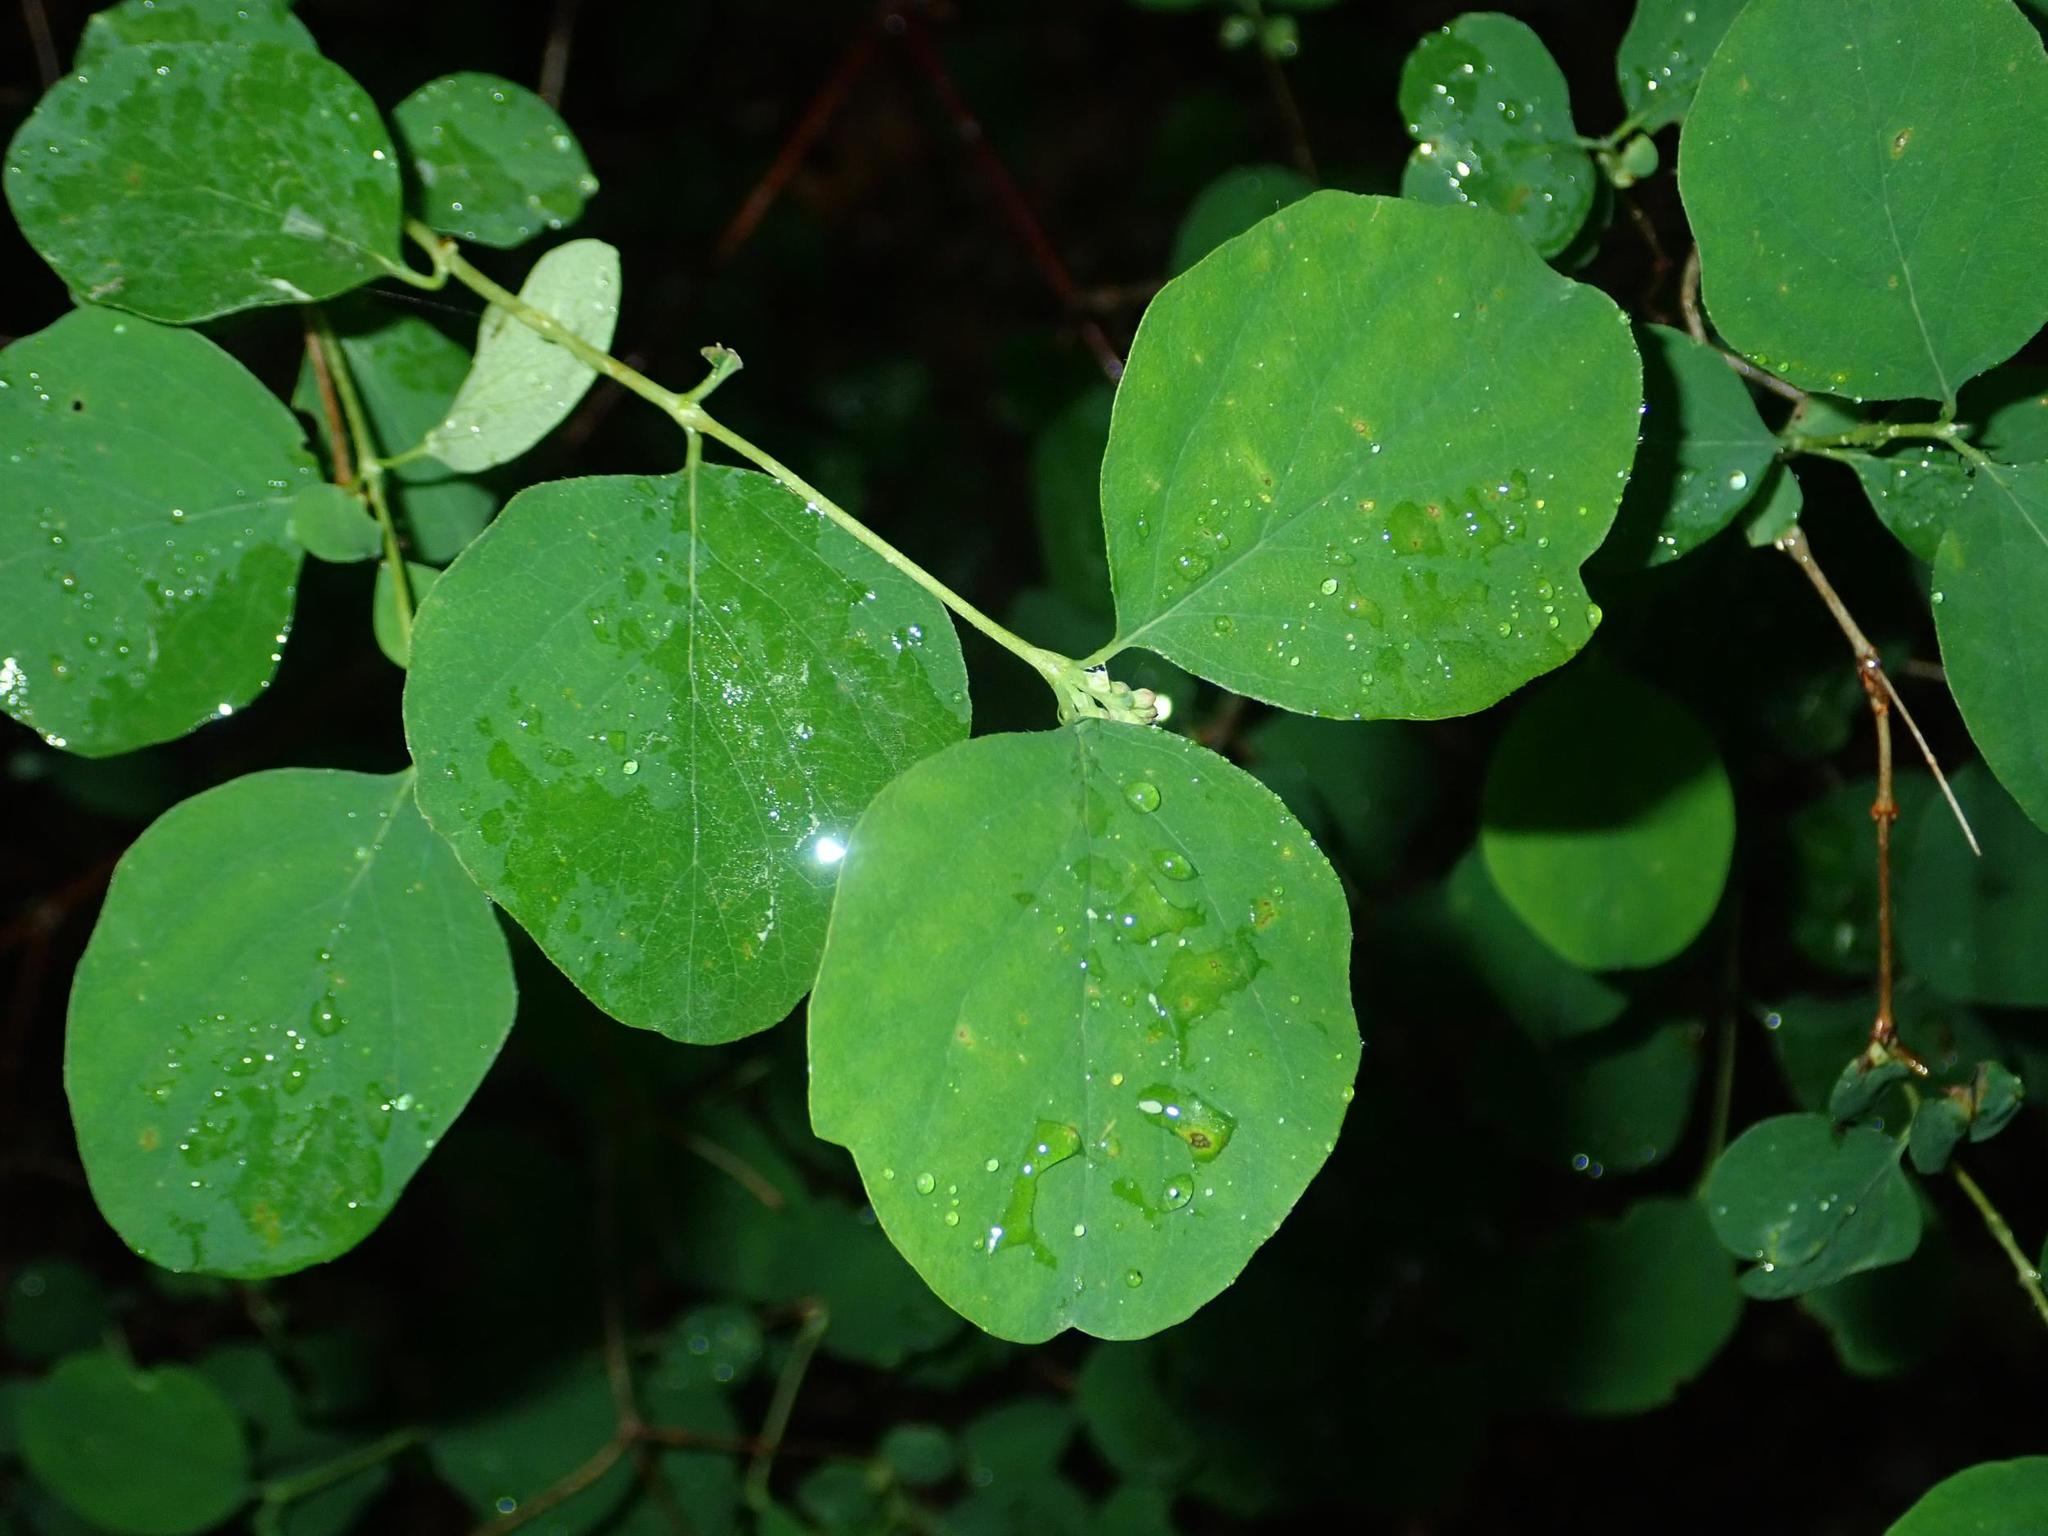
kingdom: Plantae
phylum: Tracheophyta
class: Magnoliopsida
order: Dipsacales
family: Caprifoliaceae
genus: Symphoricarpos
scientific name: Symphoricarpos albus
